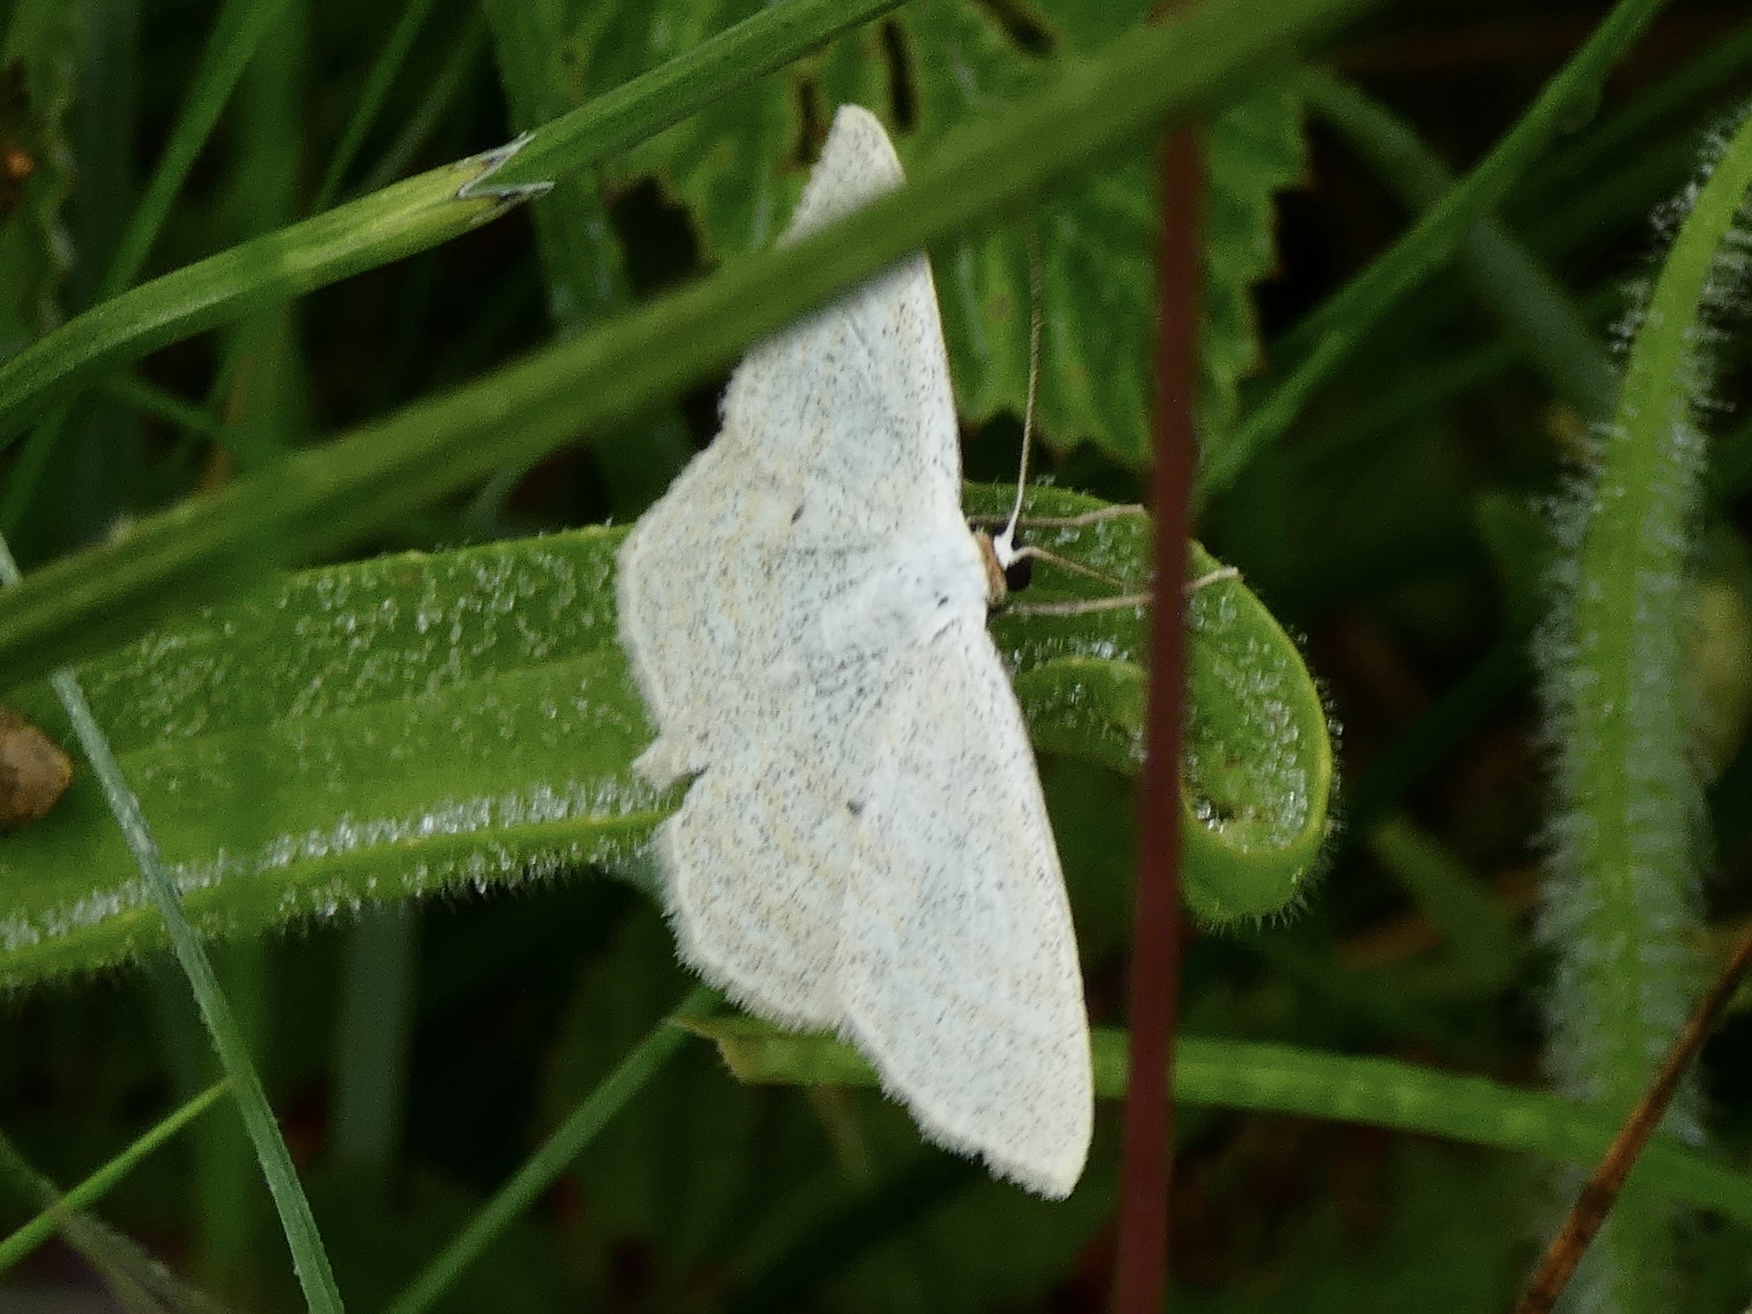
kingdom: Animalia
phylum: Arthropoda
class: Insecta
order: Lepidoptera
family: Geometridae
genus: Scopula
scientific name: Scopula immutata
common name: Lesser cream wave
